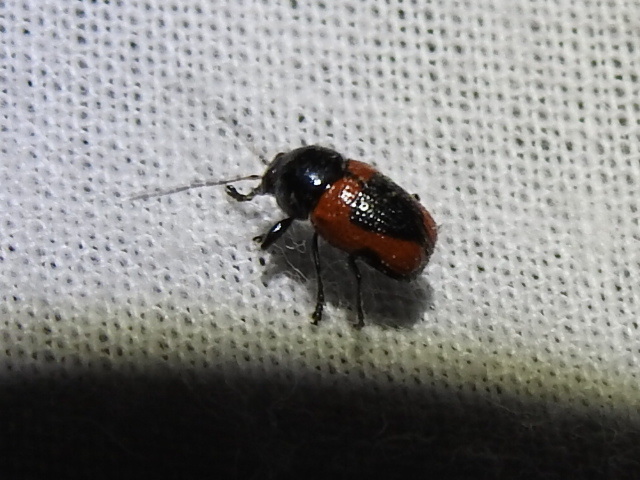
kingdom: Animalia
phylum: Arthropoda
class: Insecta
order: Coleoptera
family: Chrysomelidae
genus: Cryptocephalus
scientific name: Cryptocephalus notatus
